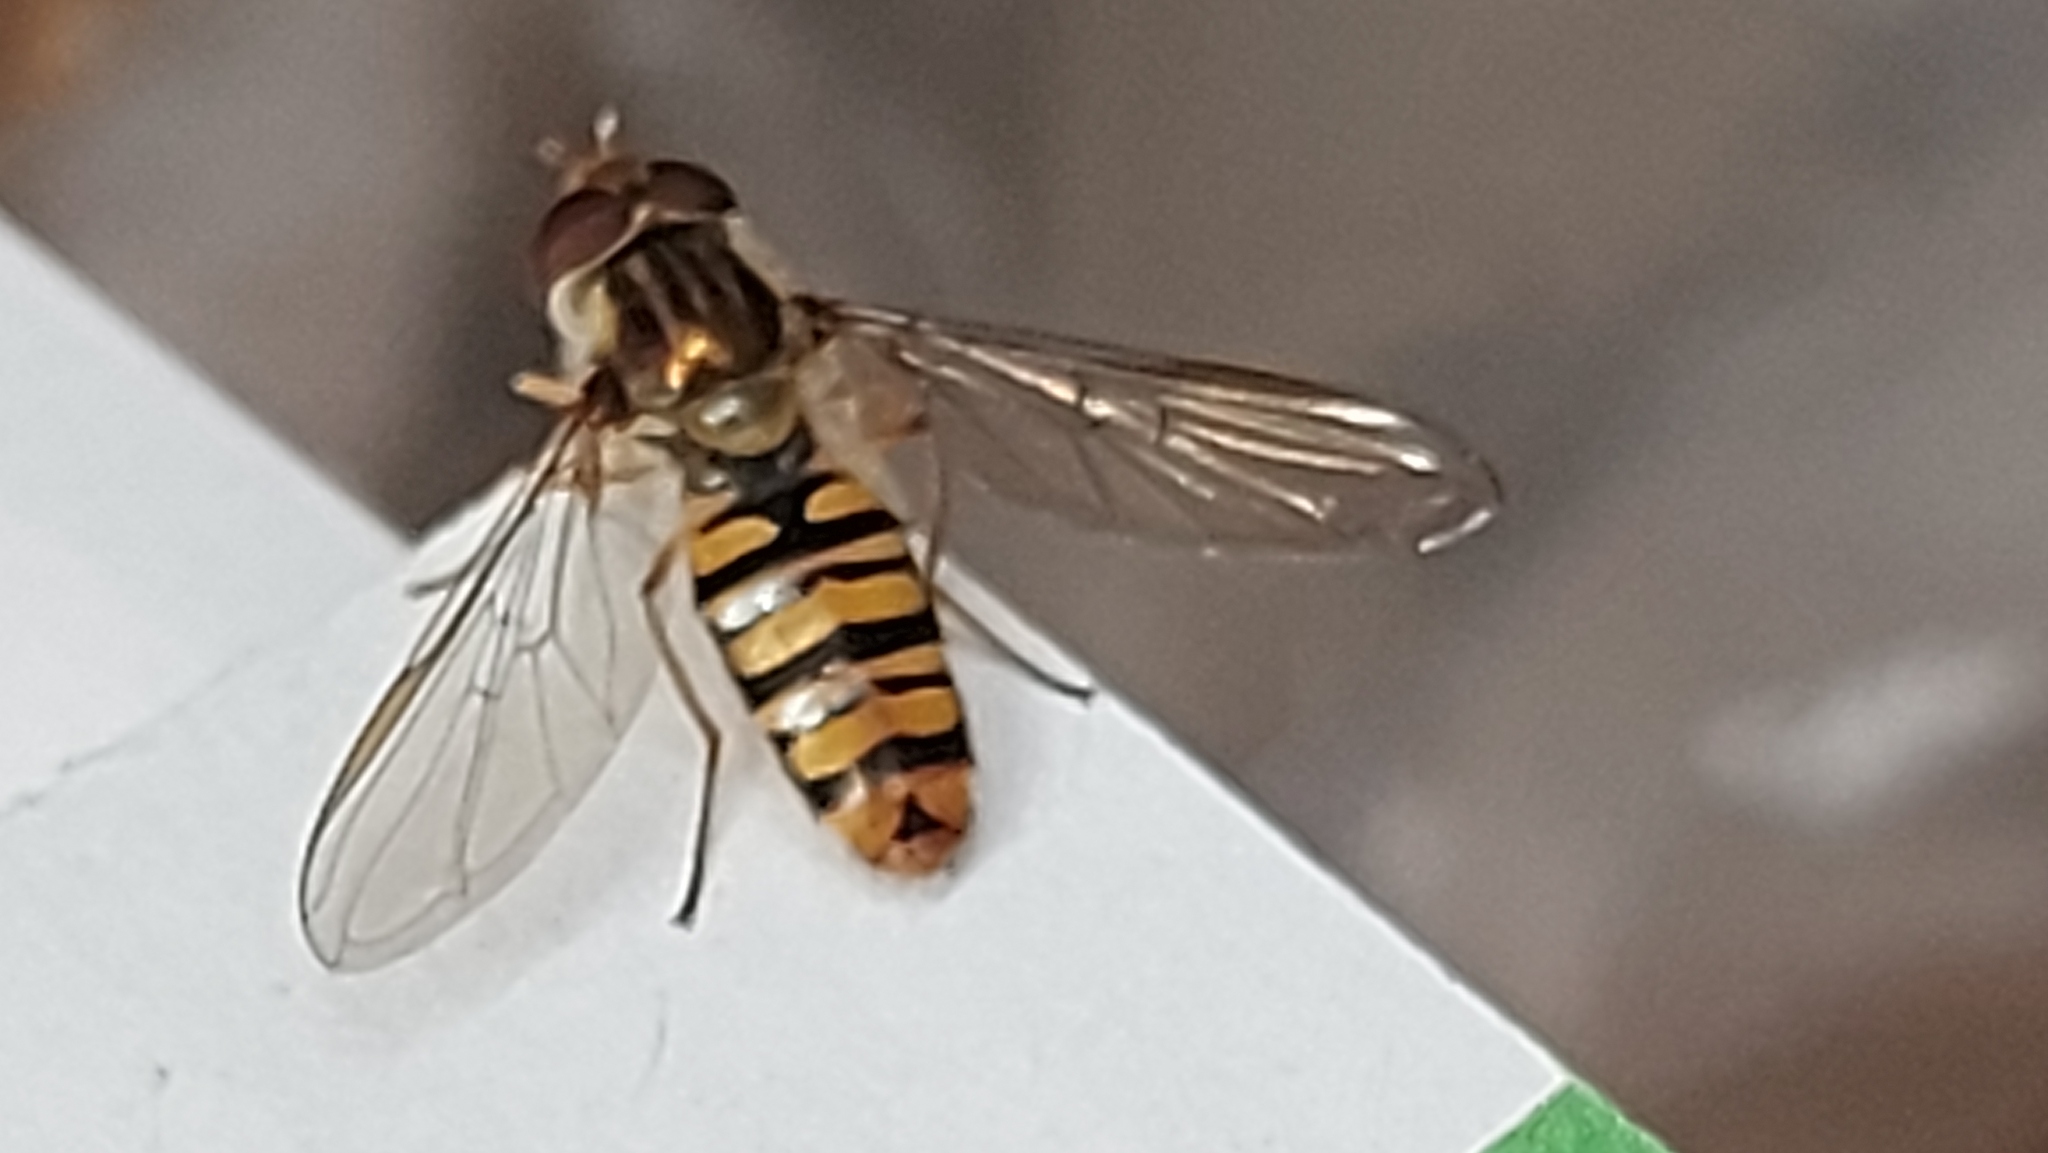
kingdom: Animalia
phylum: Arthropoda
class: Insecta
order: Diptera
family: Syrphidae
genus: Episyrphus
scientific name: Episyrphus balteatus
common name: Marmalade hoverfly
